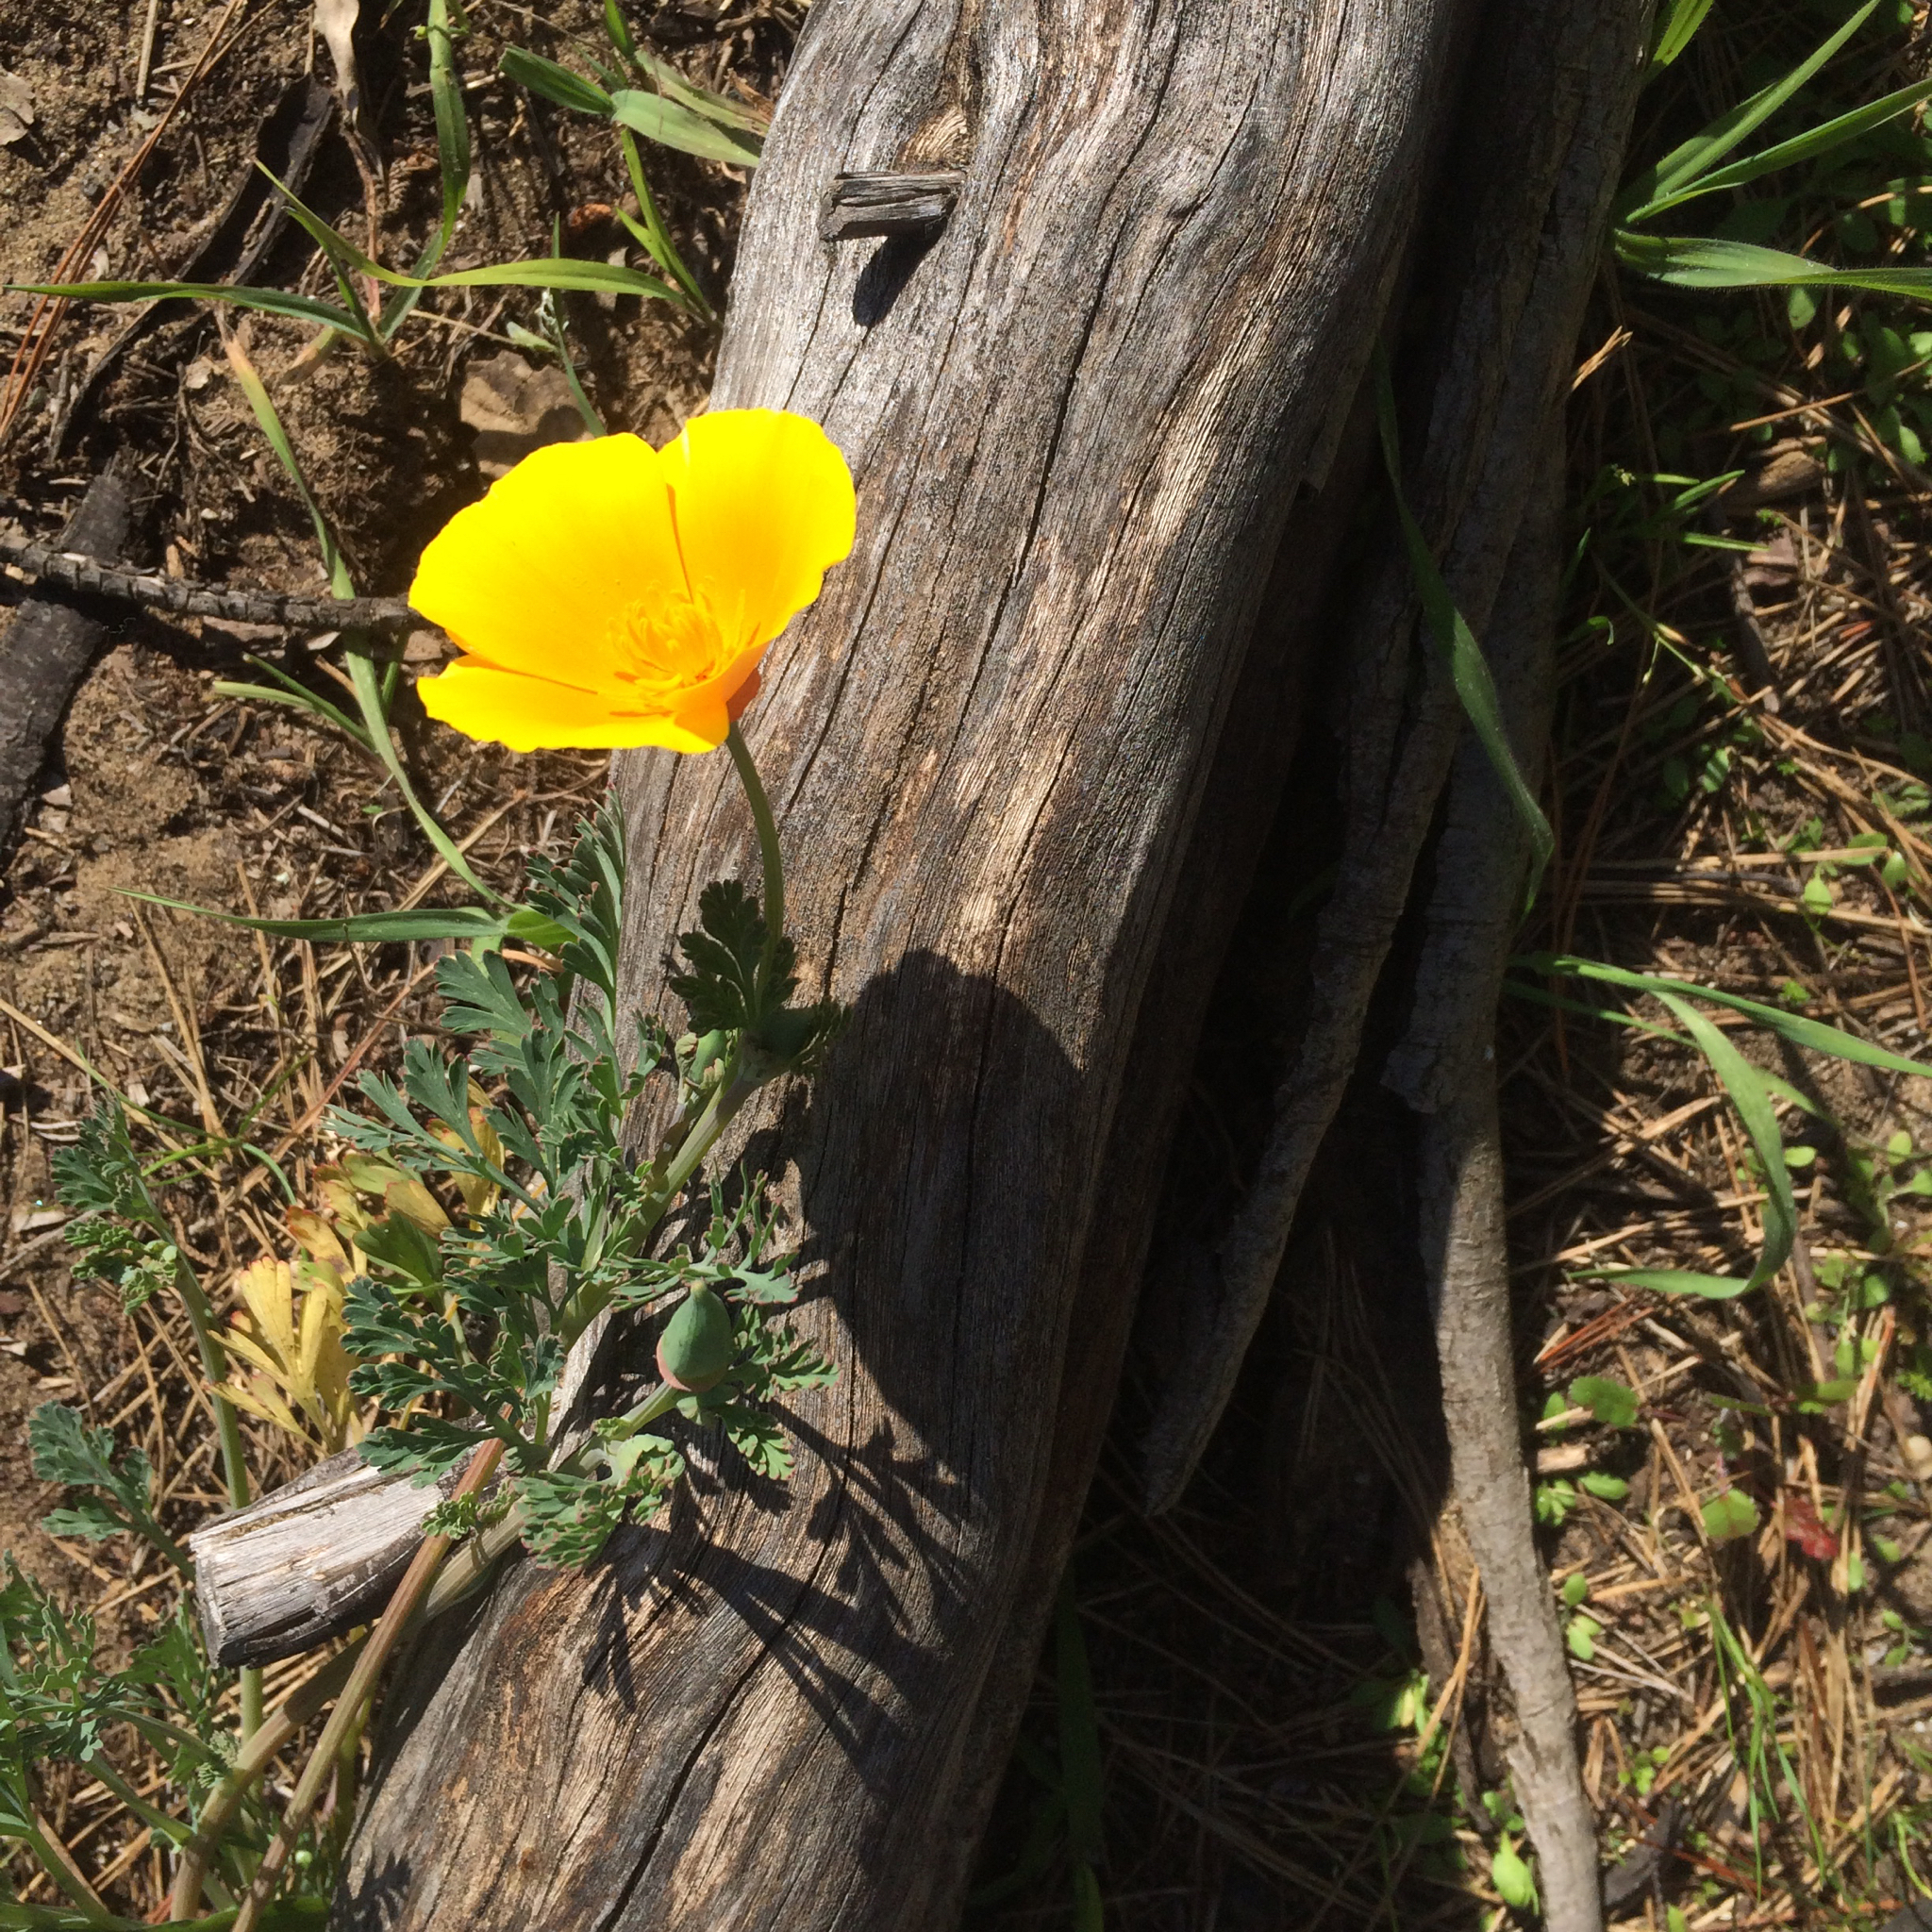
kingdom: Plantae
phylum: Tracheophyta
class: Magnoliopsida
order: Ranunculales
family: Papaveraceae
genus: Eschscholzia
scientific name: Eschscholzia californica
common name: California poppy
